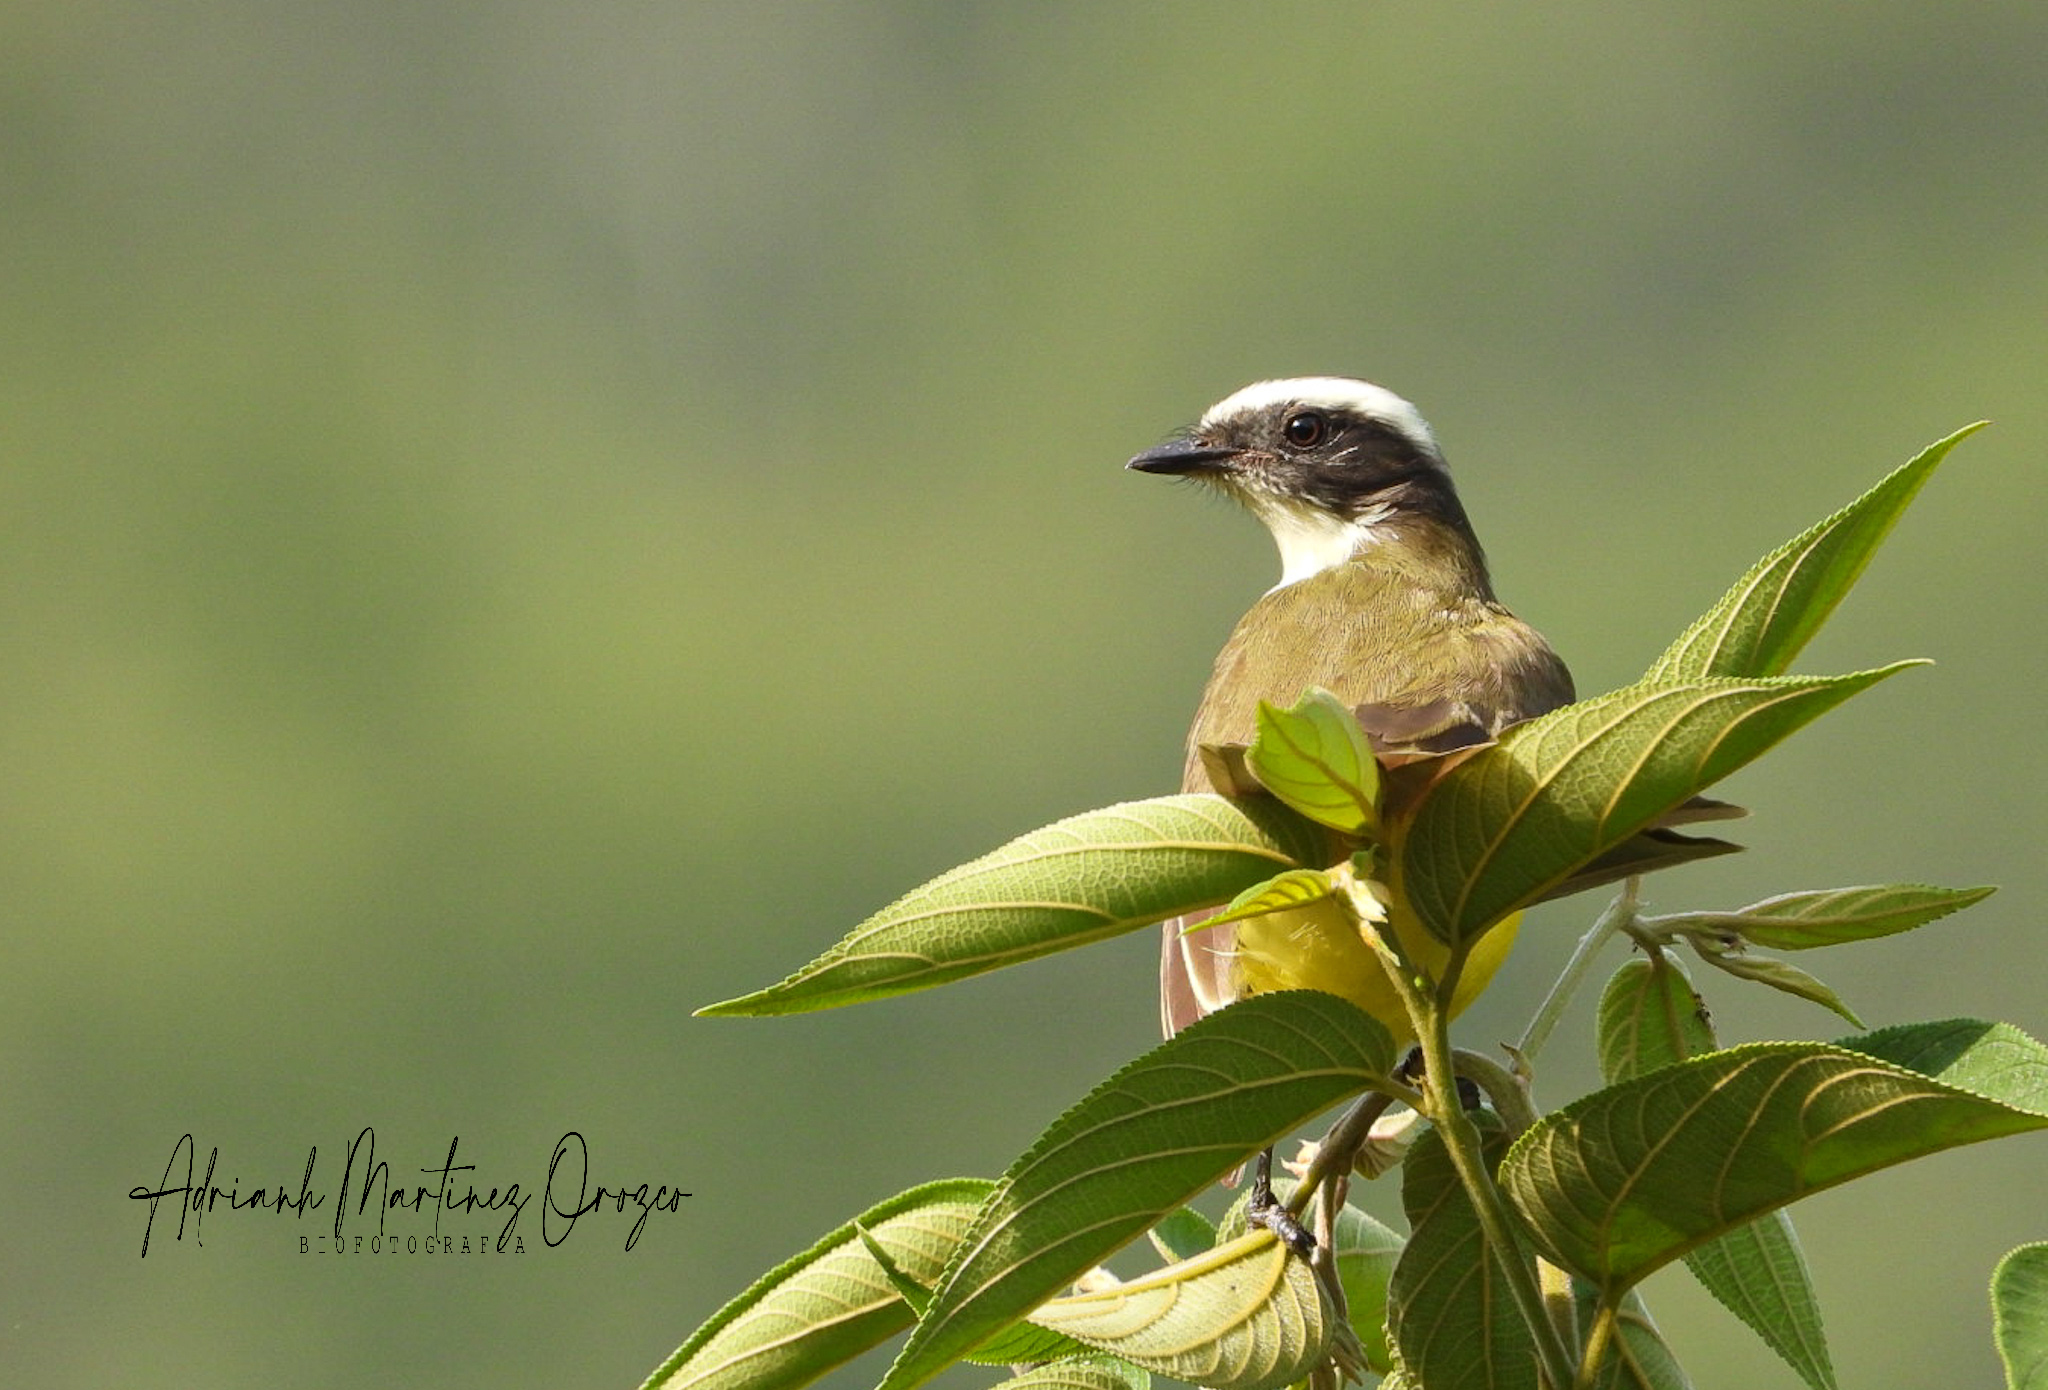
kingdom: Animalia
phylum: Chordata
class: Aves
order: Passeriformes
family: Tyrannidae
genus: Myiozetetes
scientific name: Myiozetetes similis
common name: Social flycatcher
